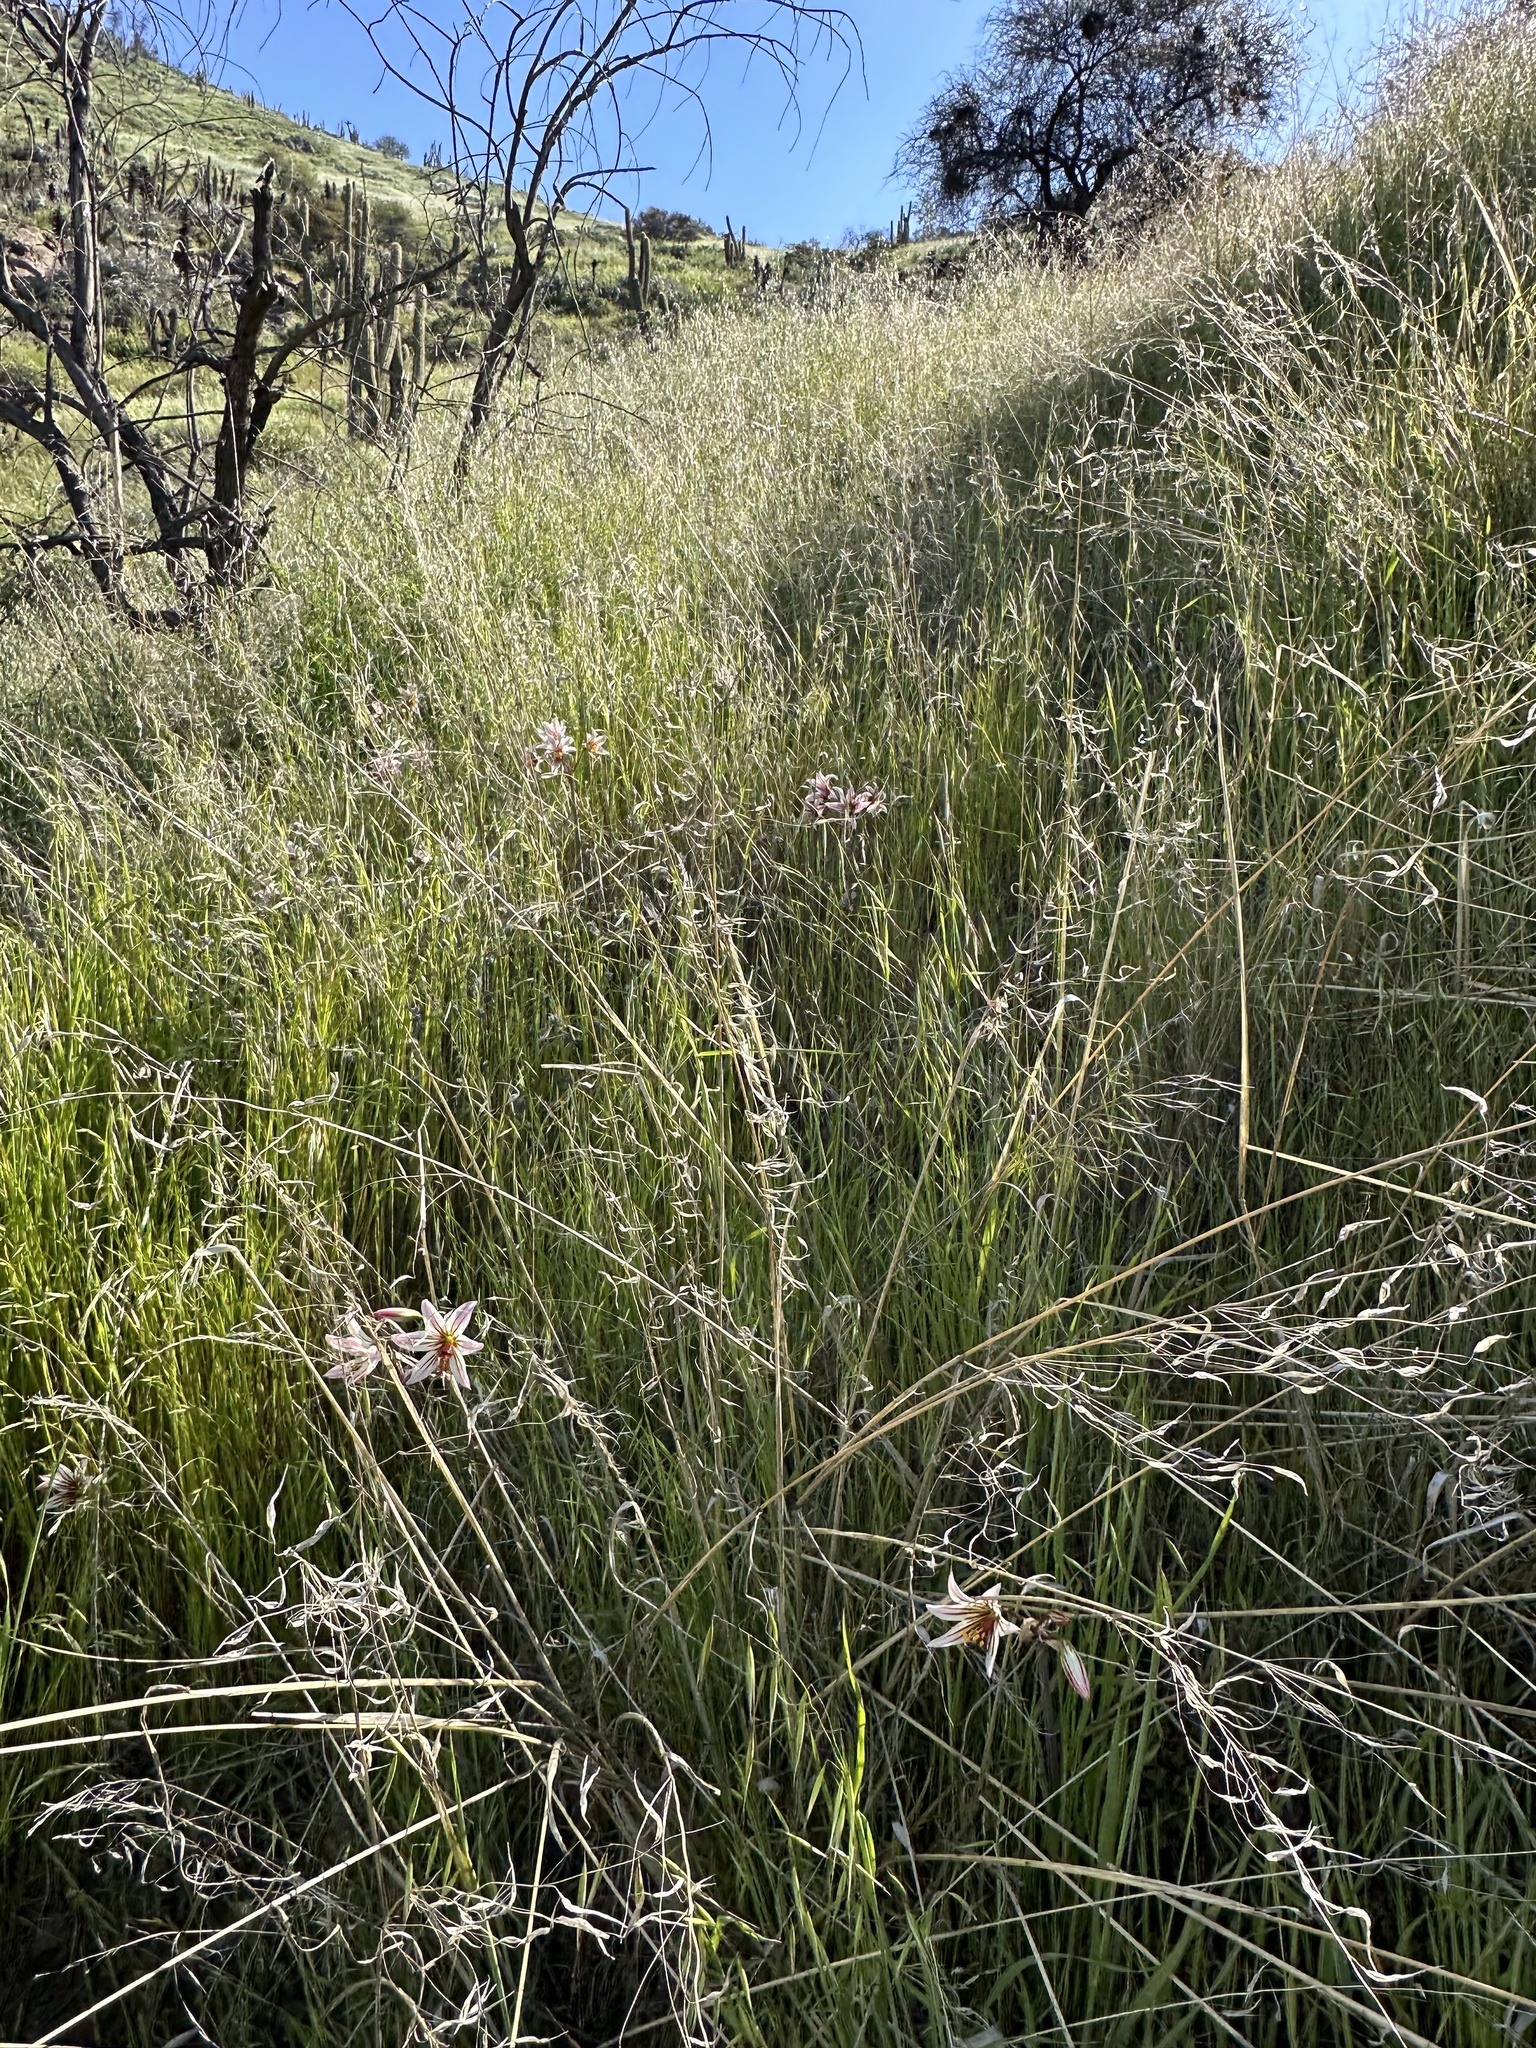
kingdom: Plantae
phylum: Tracheophyta
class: Liliopsida
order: Asparagales
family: Amaryllidaceae
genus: Phycella
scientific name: Phycella arzae
